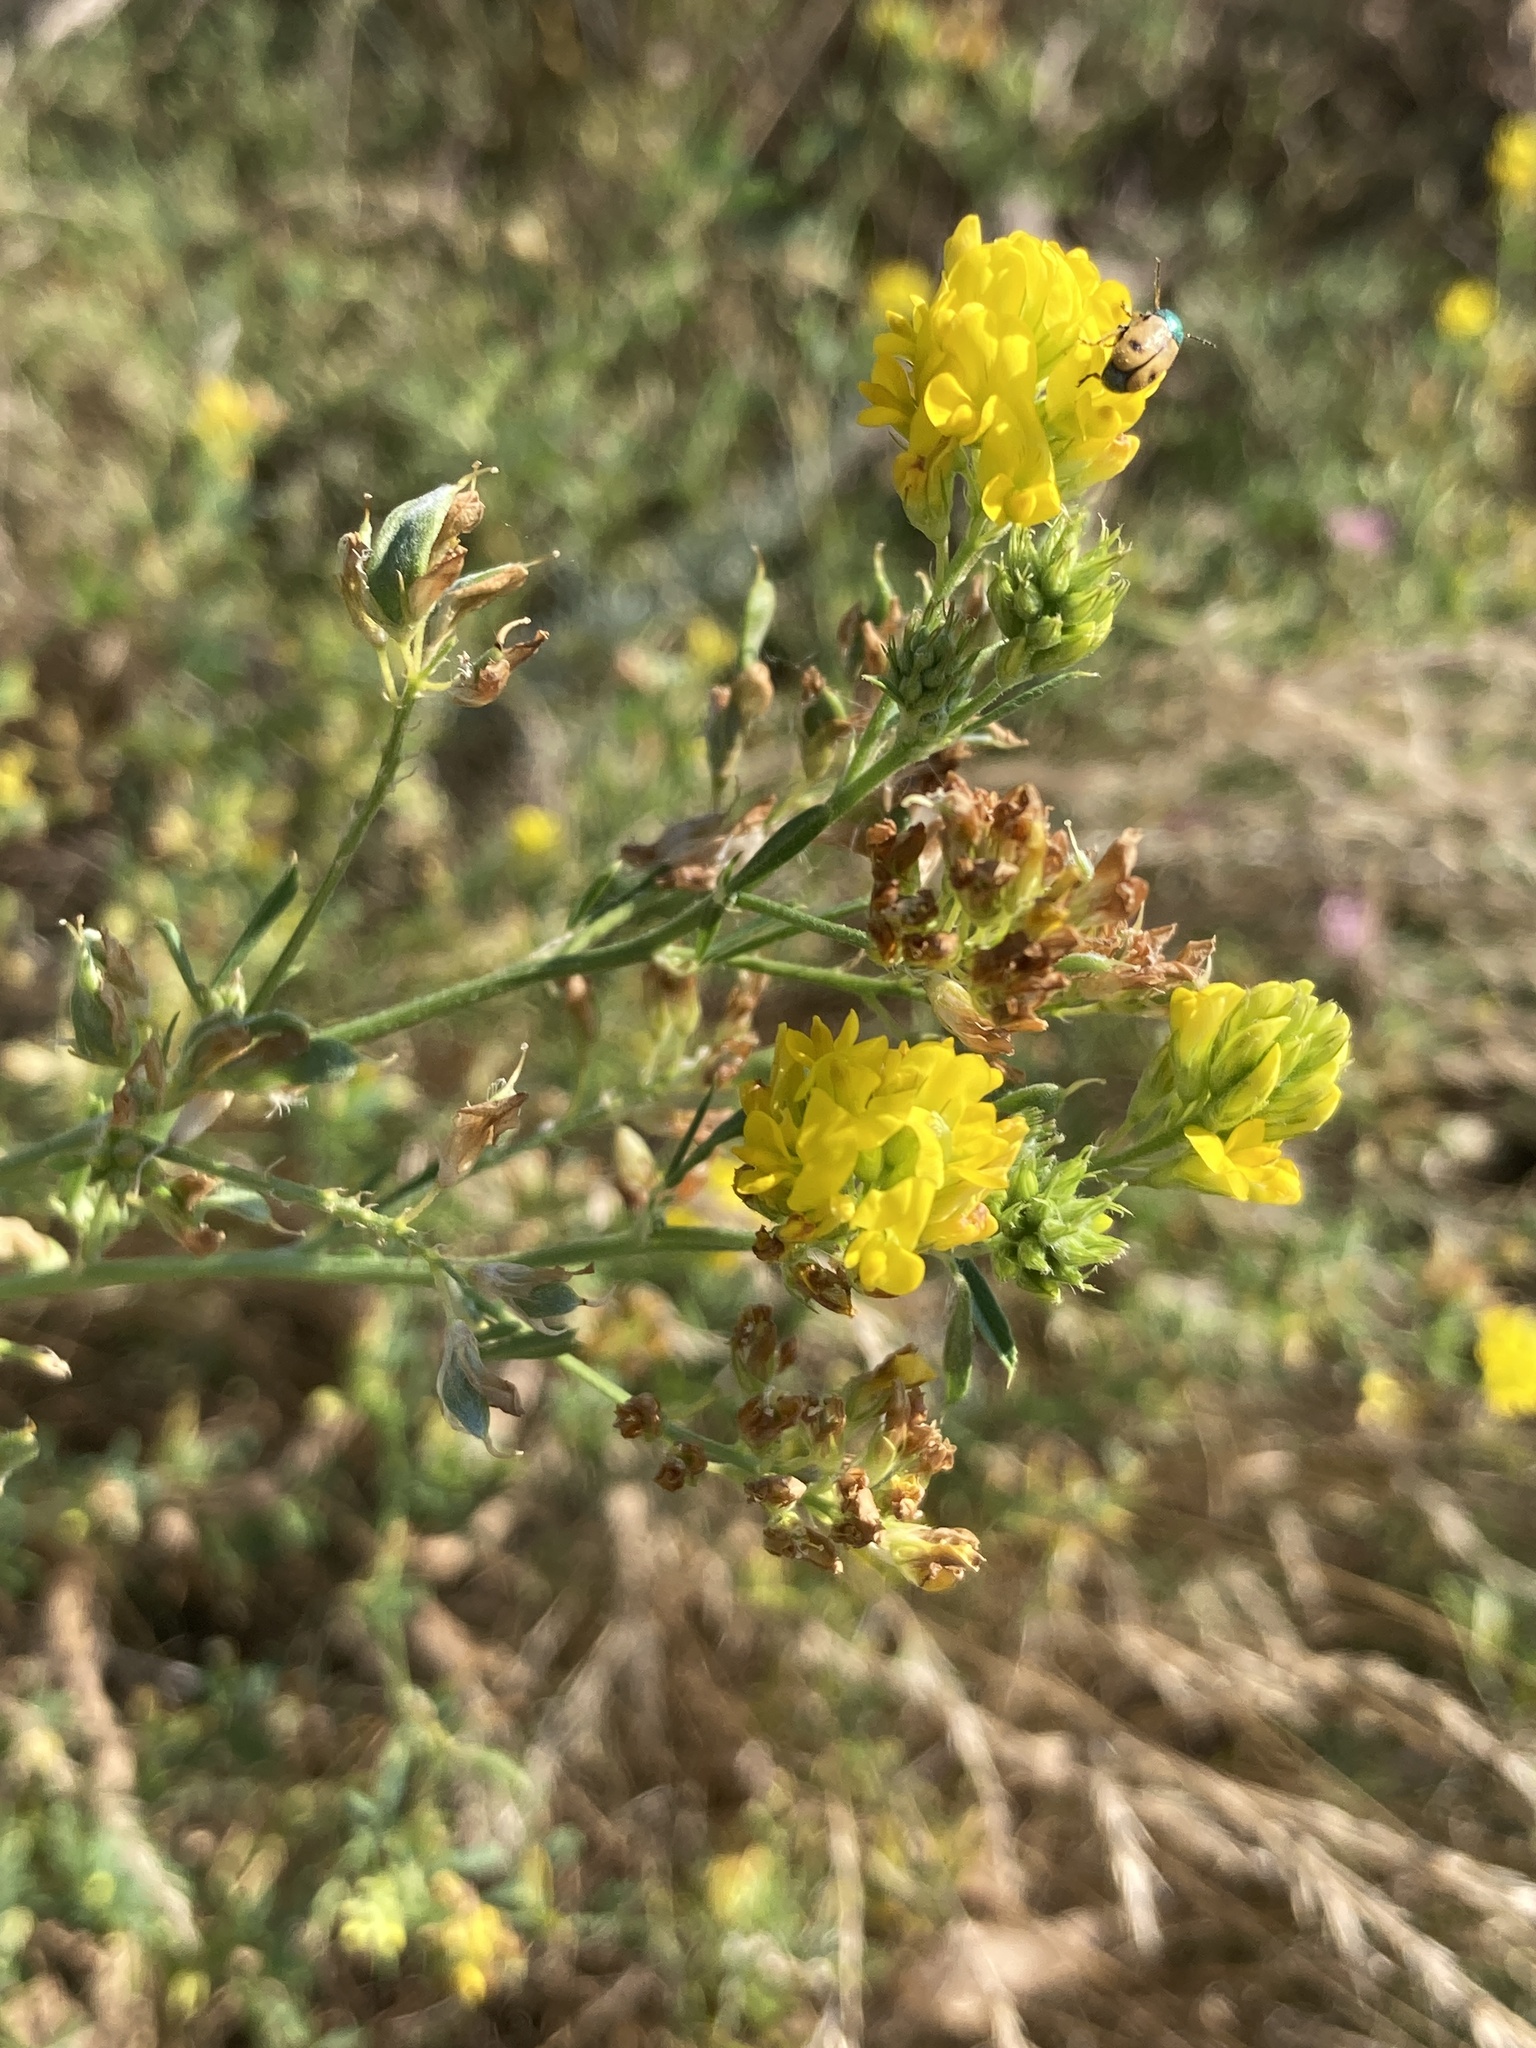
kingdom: Plantae
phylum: Tracheophyta
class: Magnoliopsida
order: Fabales
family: Fabaceae
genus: Medicago
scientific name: Medicago falcata
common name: Sickle medick
